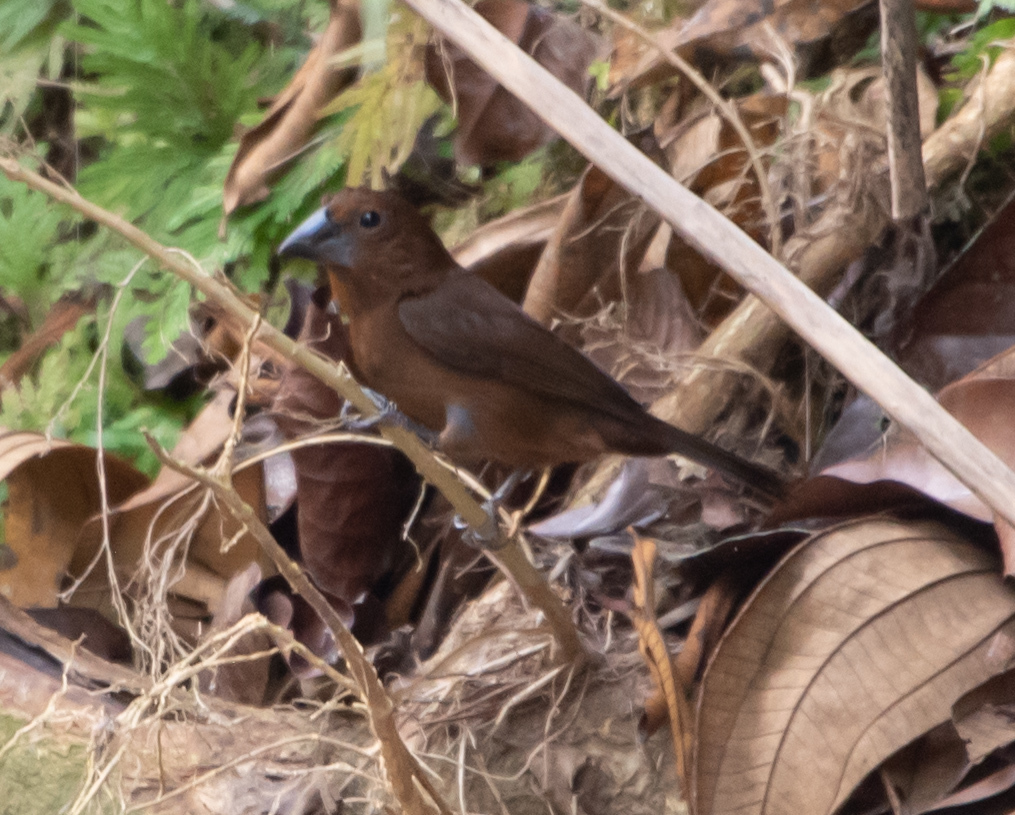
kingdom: Animalia
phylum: Chordata
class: Aves
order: Passeriformes
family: Cardinalidae
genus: Cyanocompsa
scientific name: Cyanocompsa cyanoides
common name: Blue-black grosbeak
